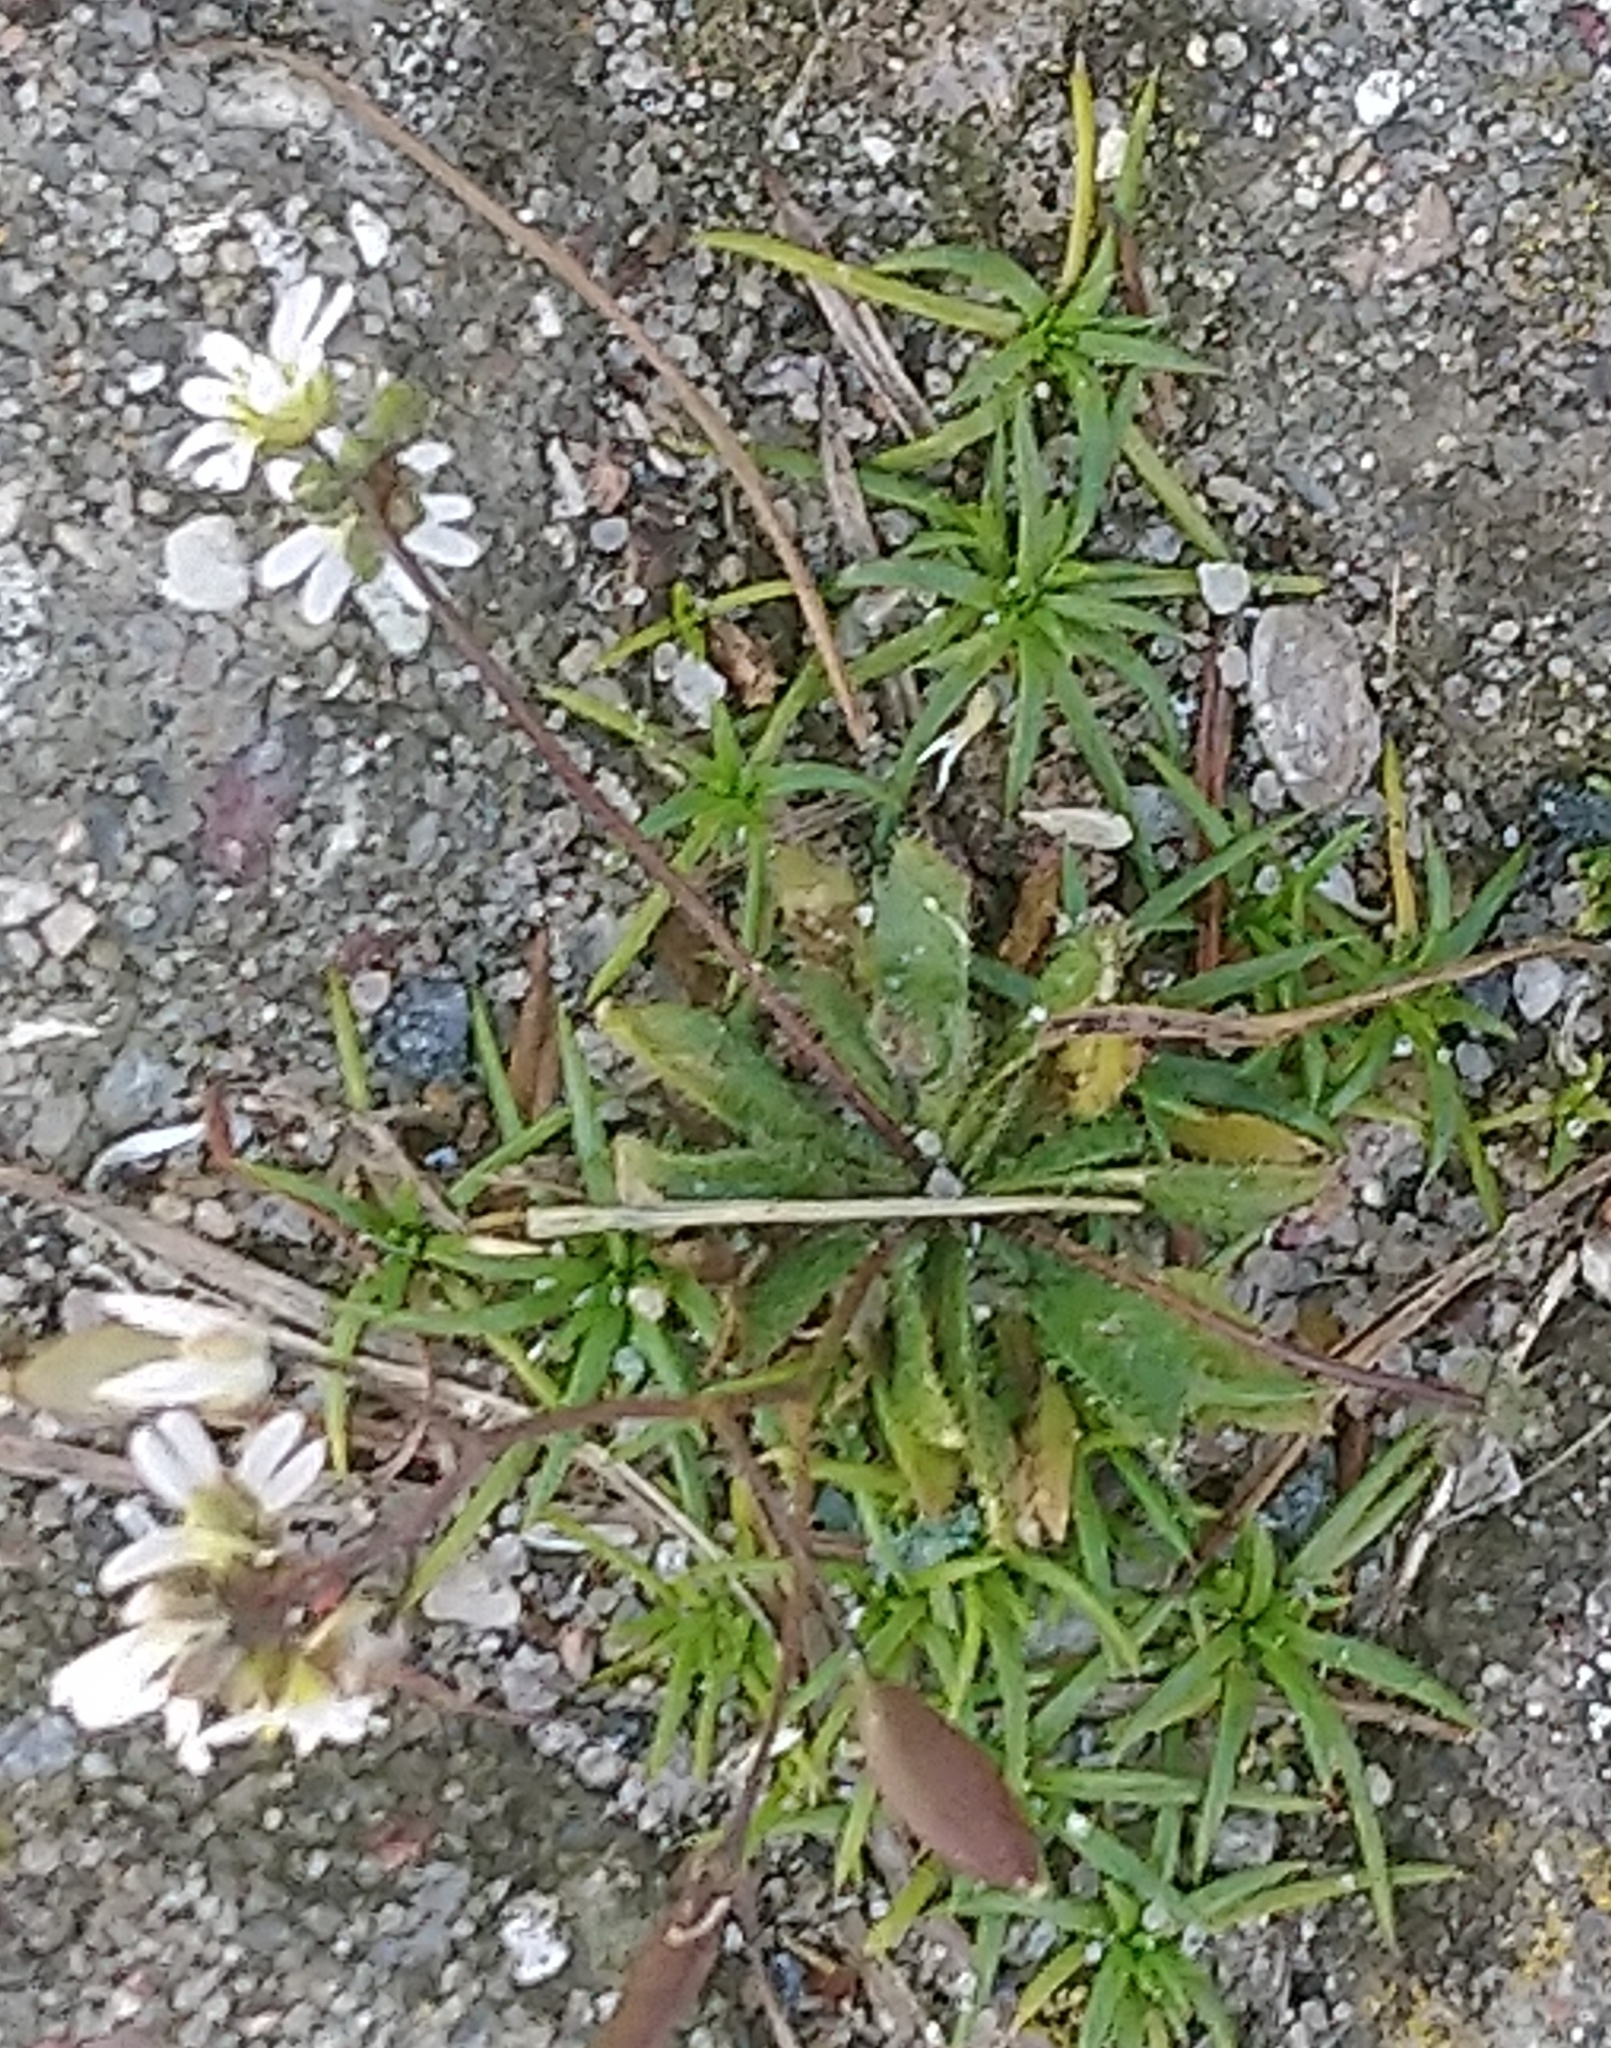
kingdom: Plantae
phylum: Tracheophyta
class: Magnoliopsida
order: Brassicales
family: Brassicaceae
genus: Draba
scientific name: Draba verna
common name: Spring draba
